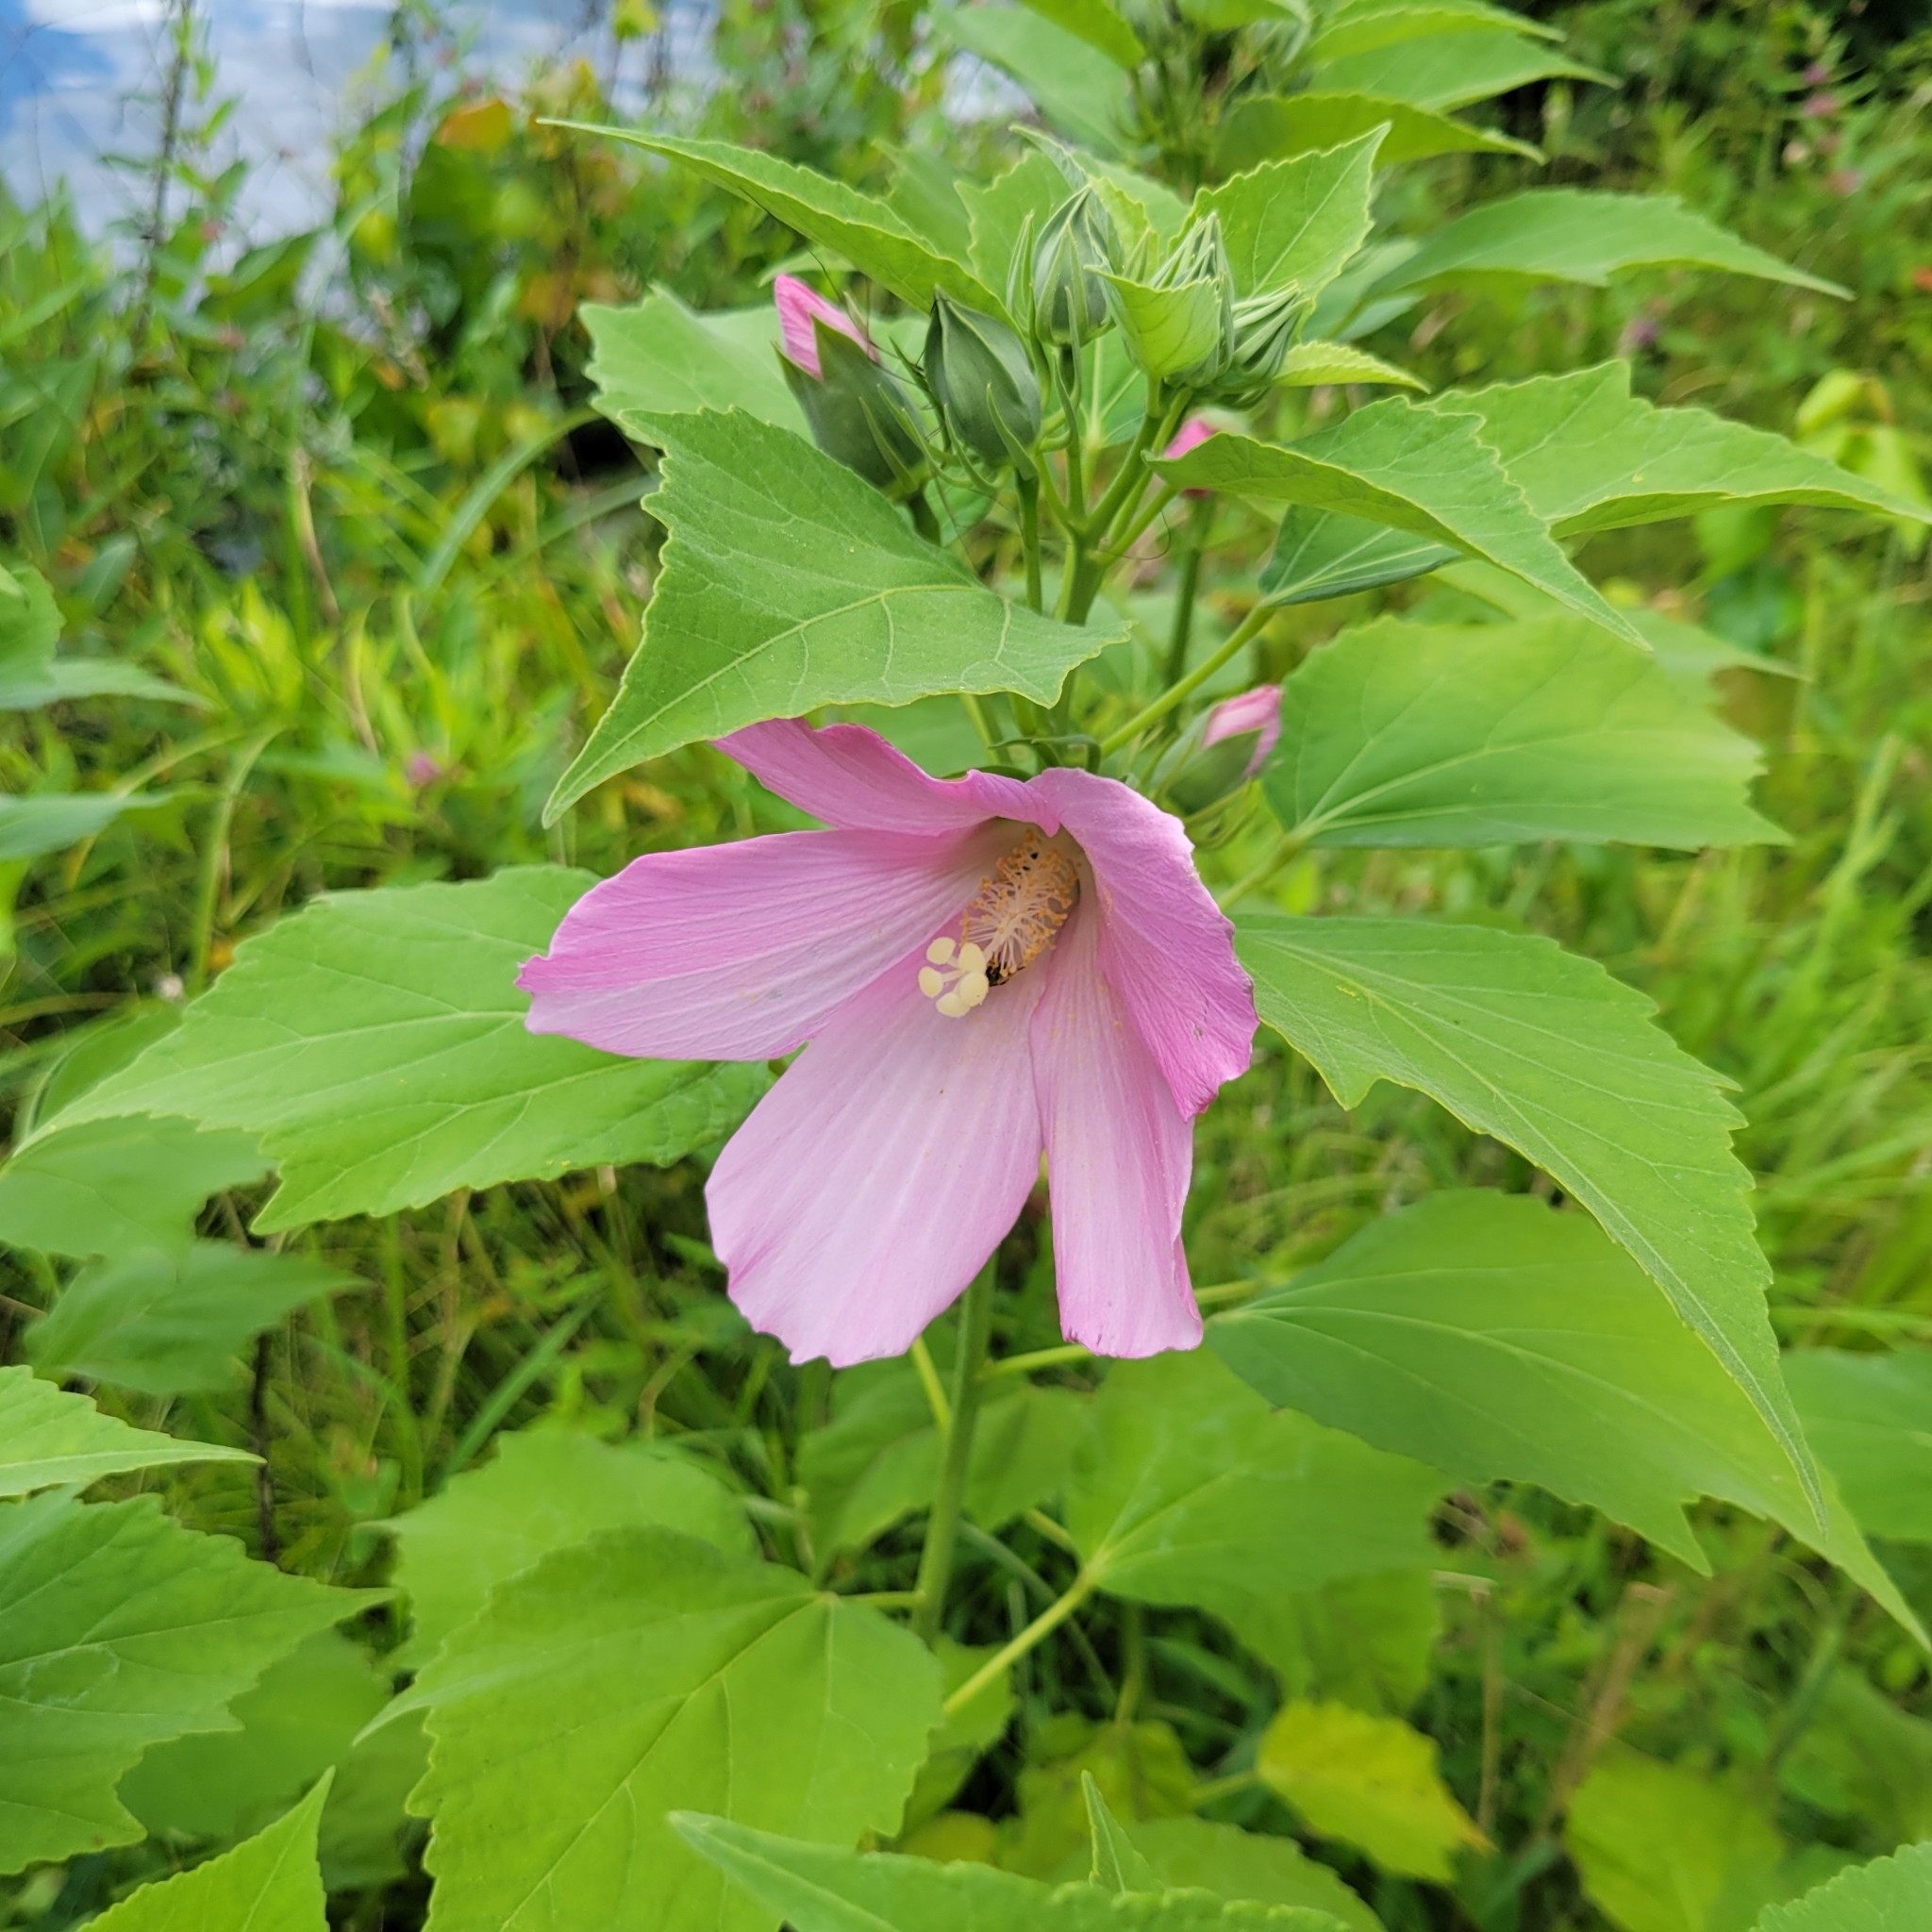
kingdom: Plantae
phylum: Tracheophyta
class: Magnoliopsida
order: Malvales
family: Malvaceae
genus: Hibiscus
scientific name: Hibiscus moscheutos
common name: Common rose-mallow
